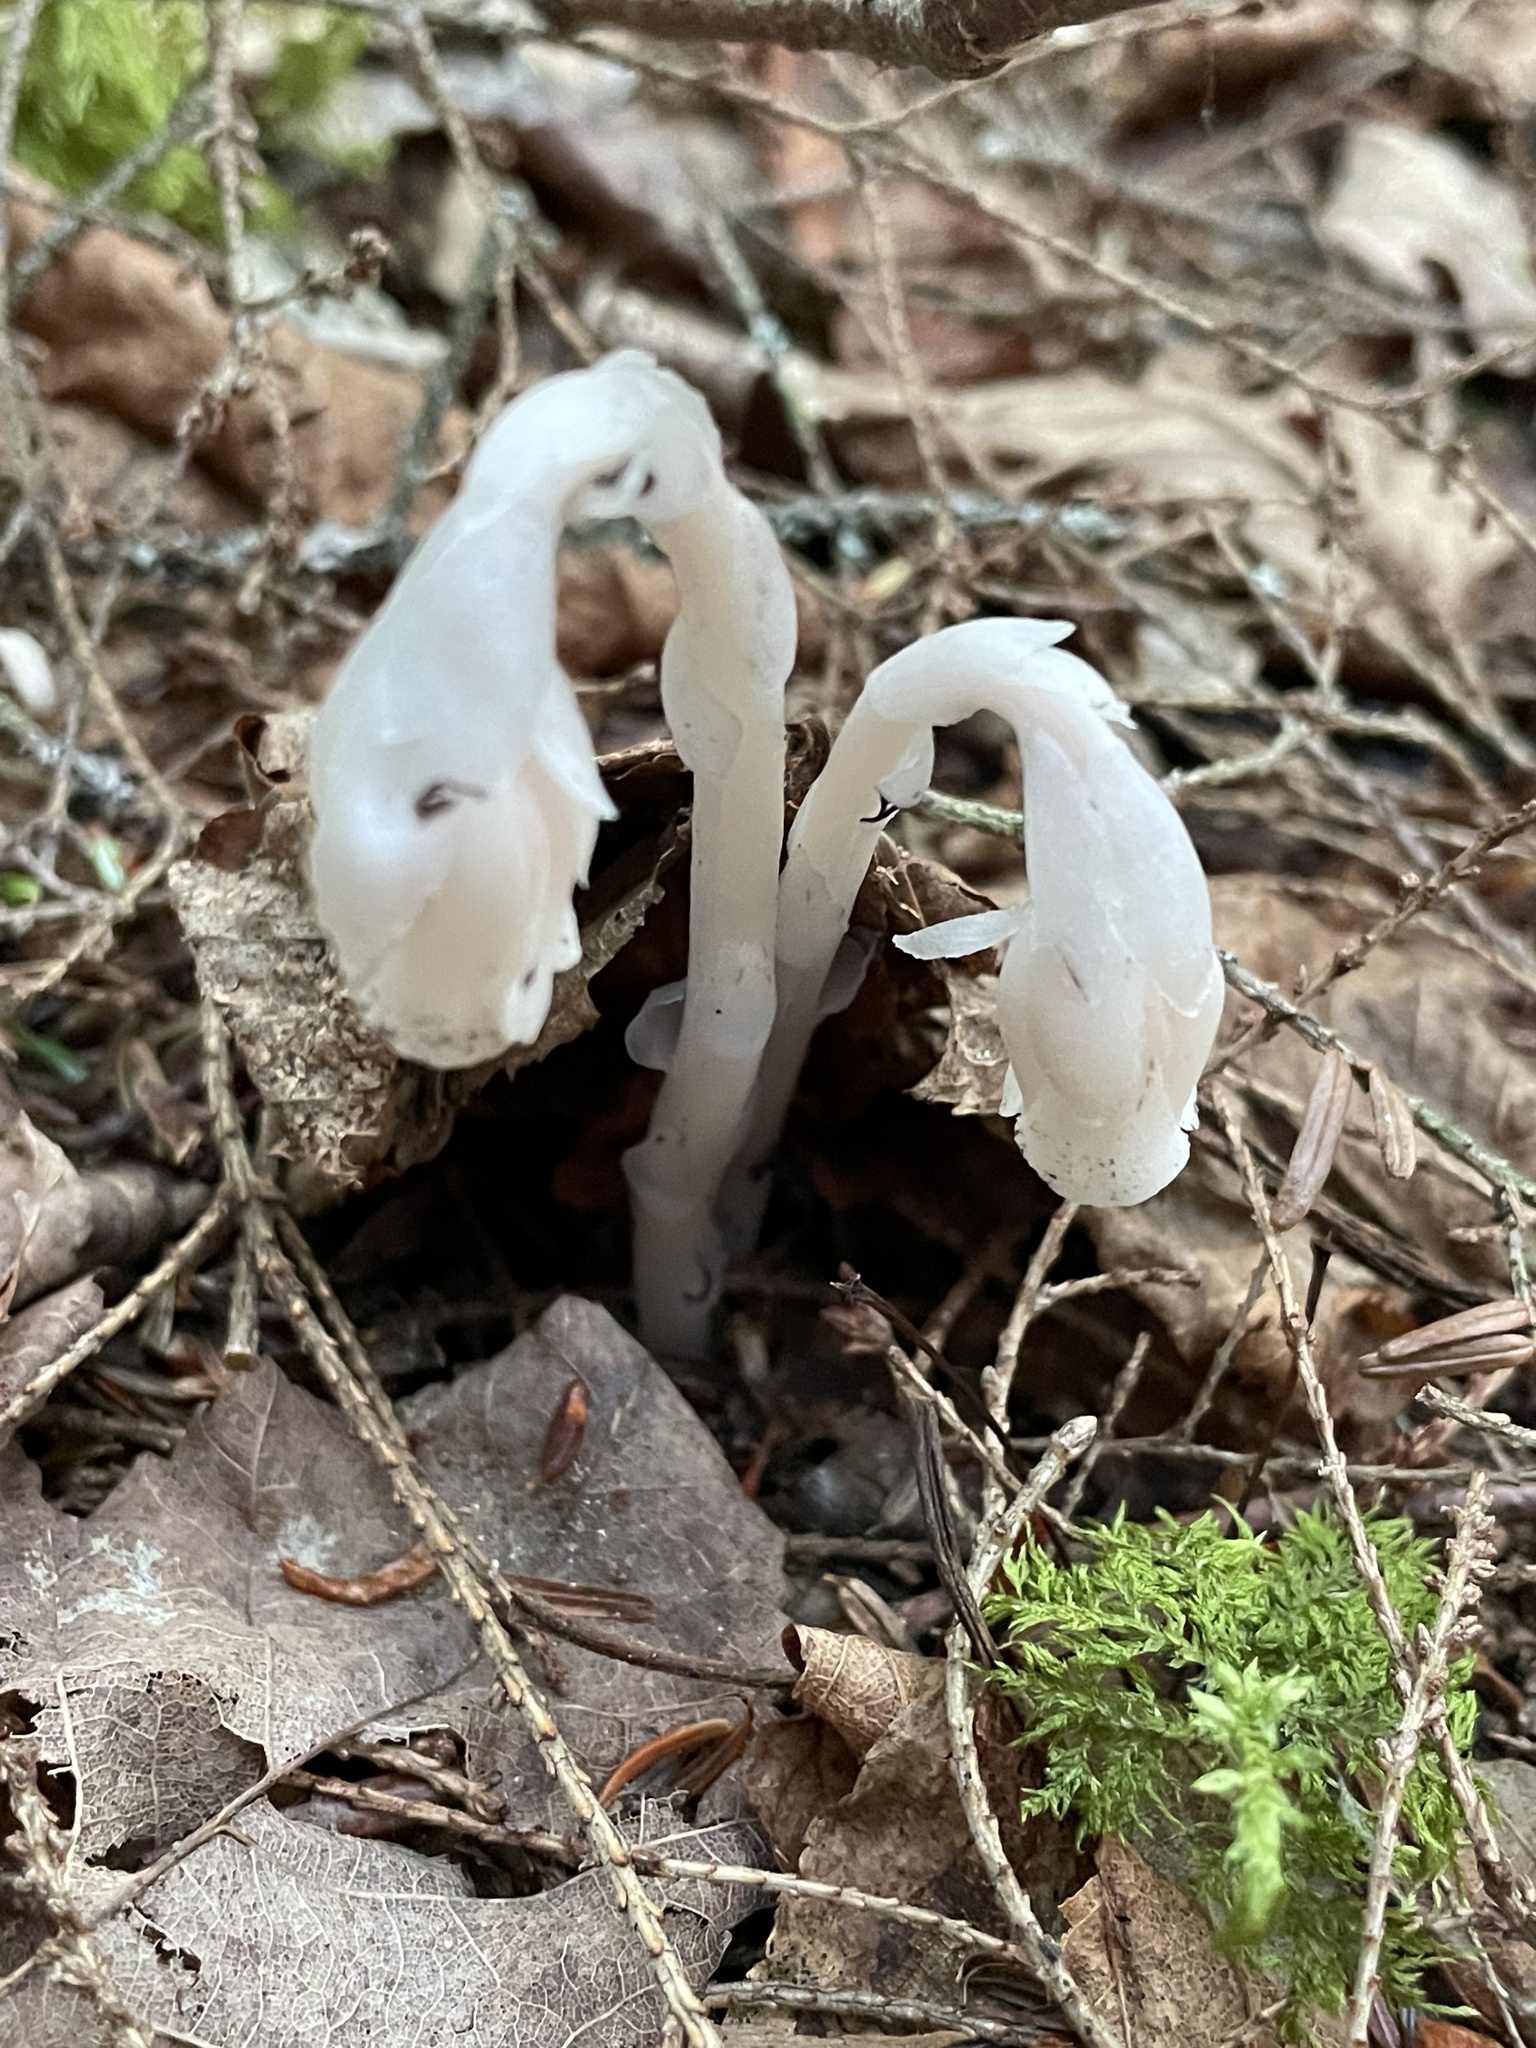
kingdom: Plantae
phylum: Tracheophyta
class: Magnoliopsida
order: Ericales
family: Ericaceae
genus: Monotropa
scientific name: Monotropa uniflora
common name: Convulsion root
